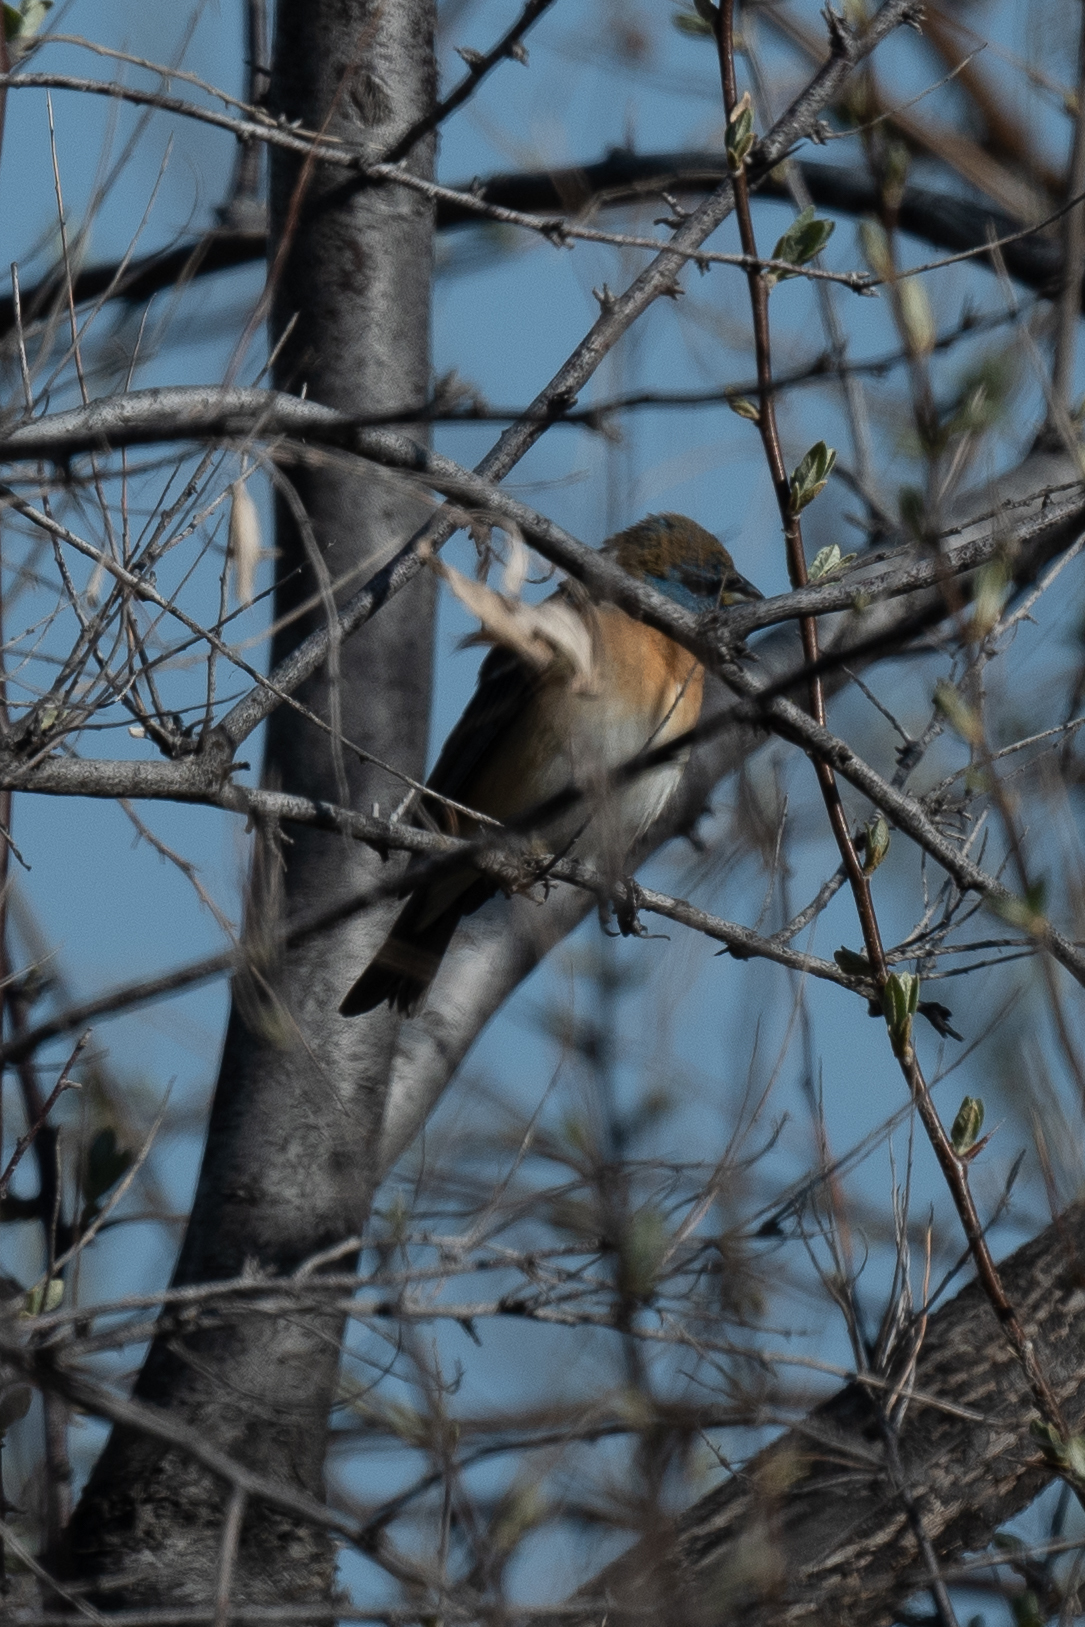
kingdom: Animalia
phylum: Chordata
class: Aves
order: Passeriformes
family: Cardinalidae
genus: Passerina
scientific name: Passerina amoena
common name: Lazuli bunting
